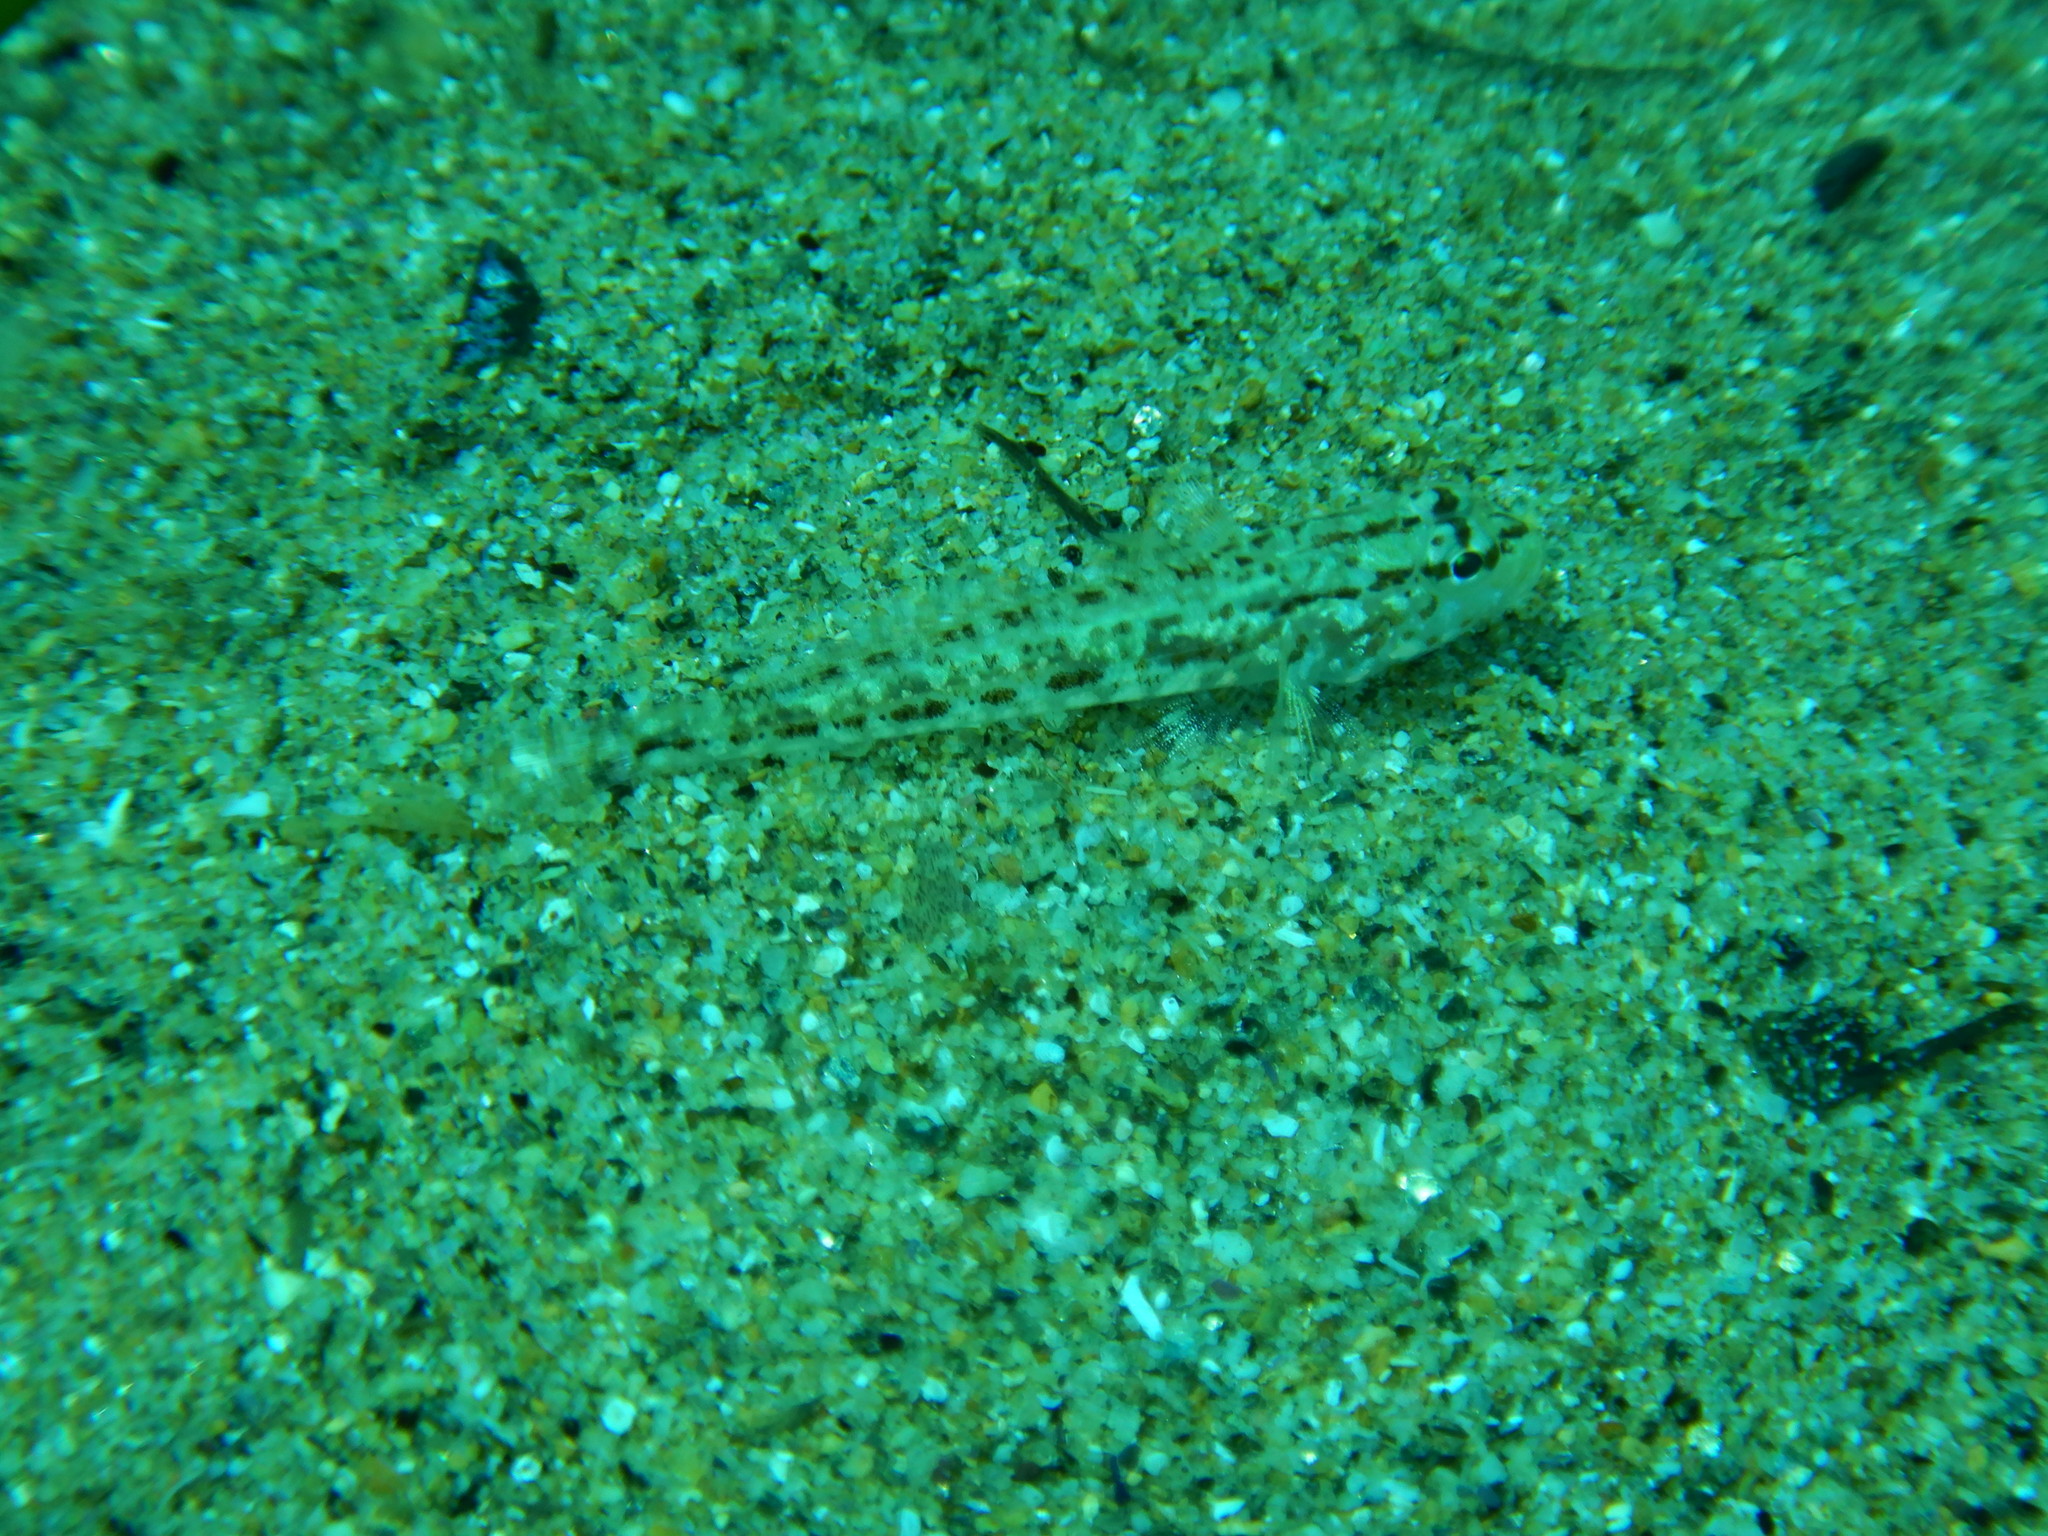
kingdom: Animalia
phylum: Chordata
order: Perciformes
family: Gobiidae
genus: Gobius
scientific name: Gobius geniporus
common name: Slender goby
